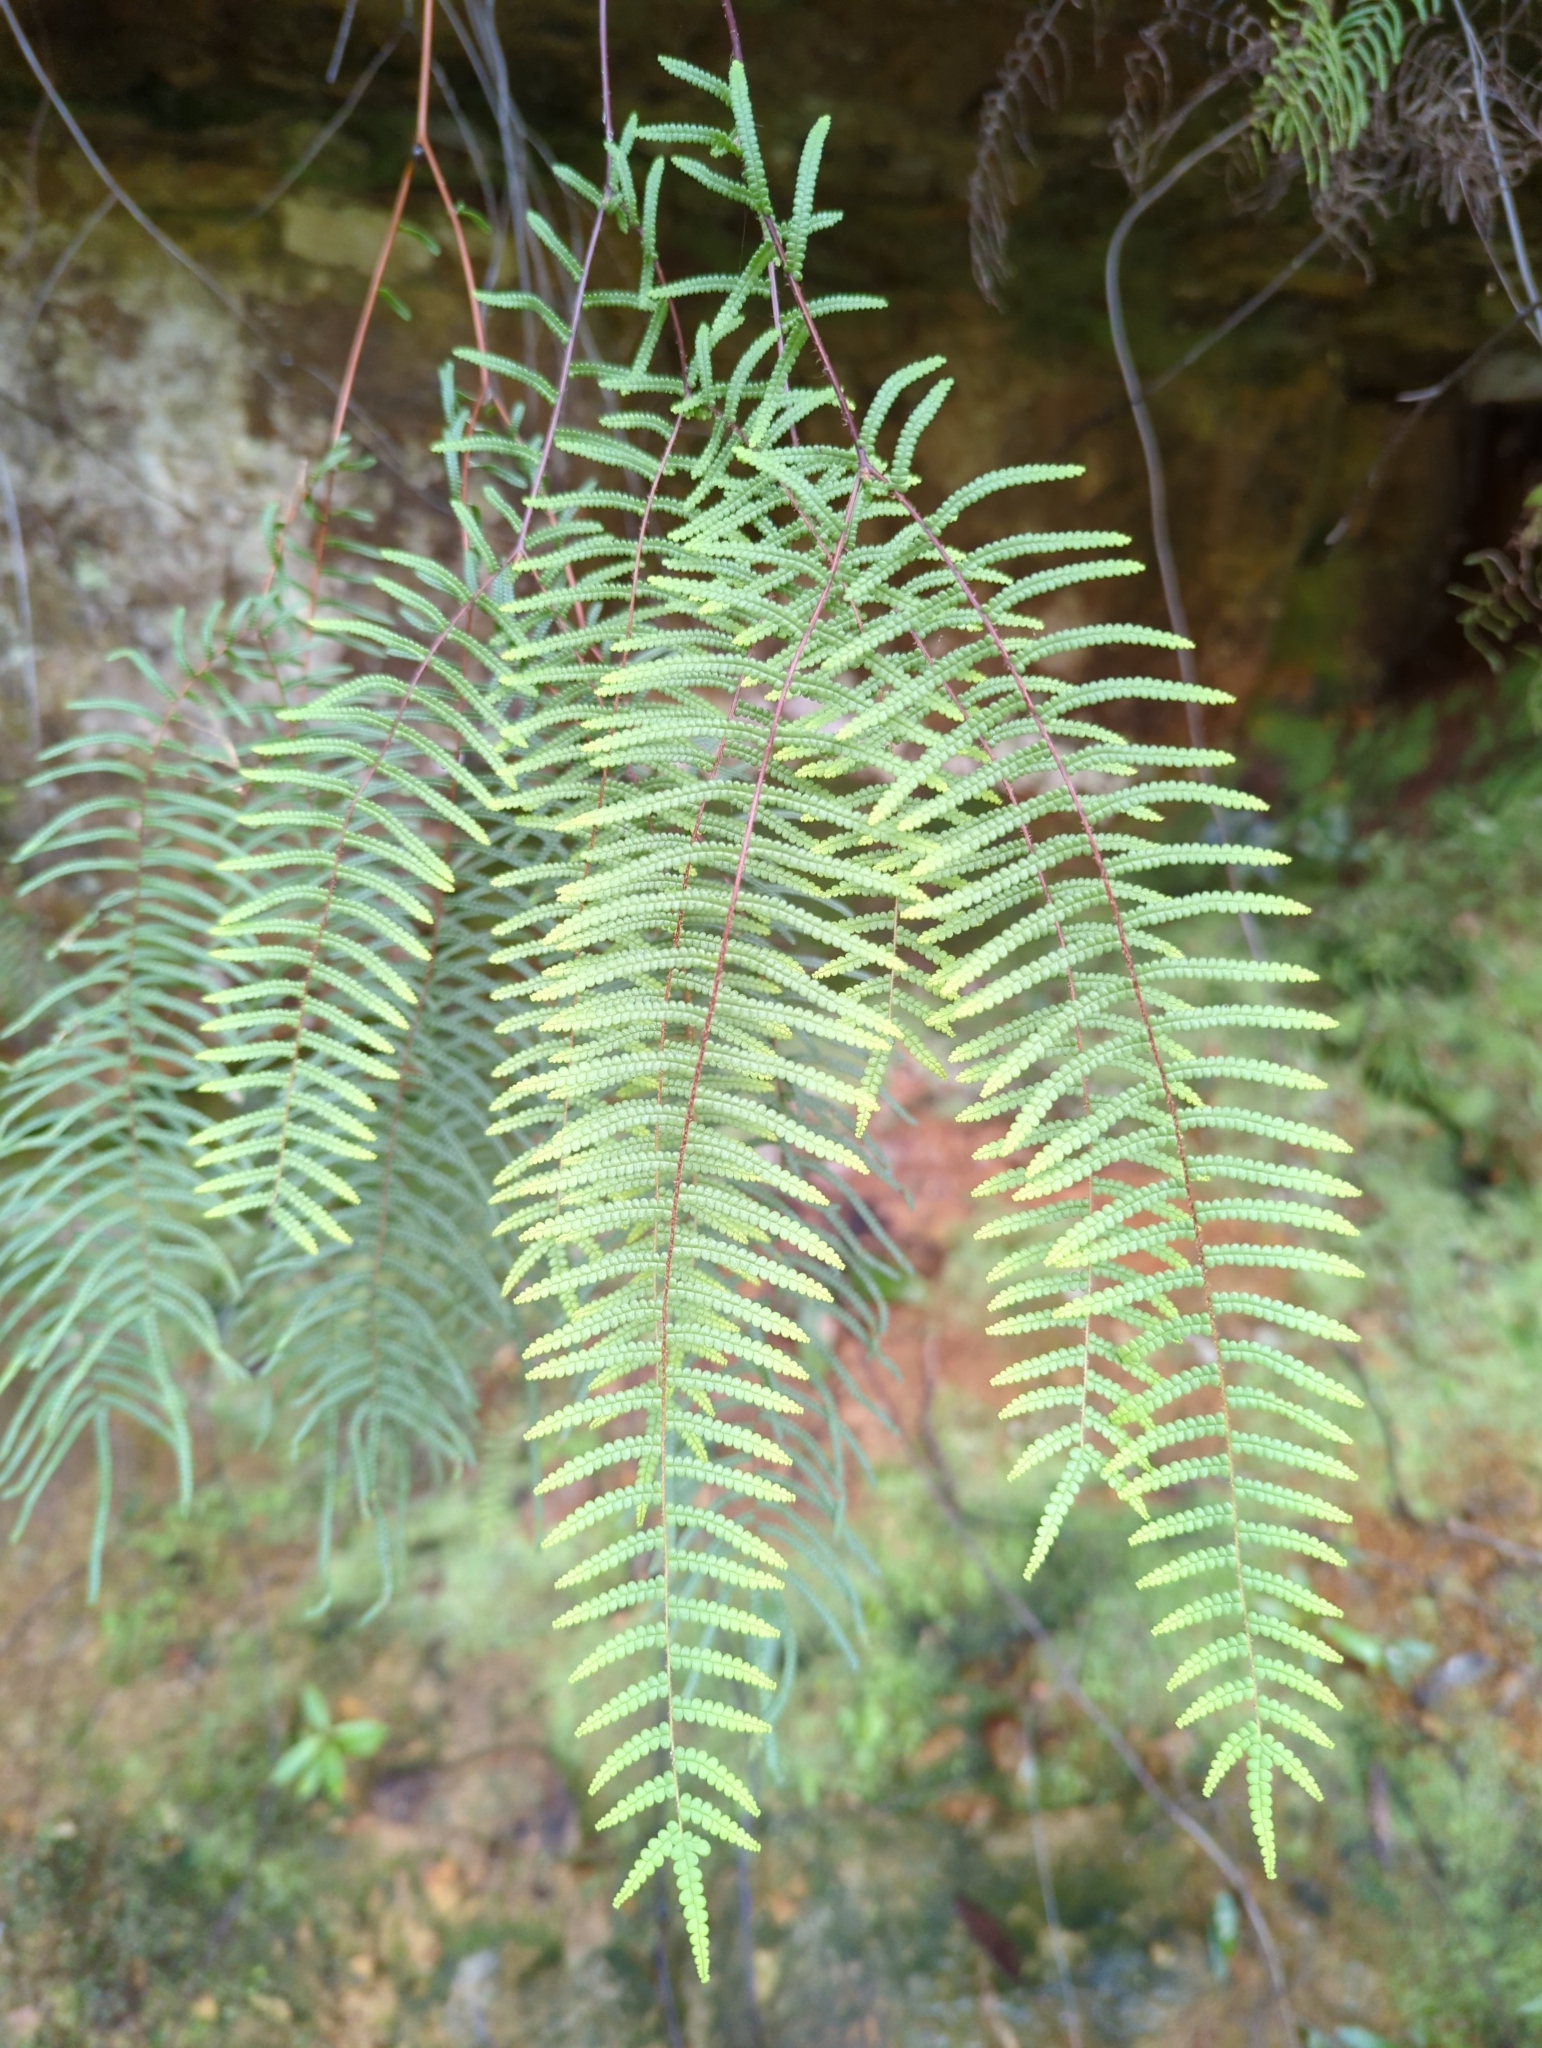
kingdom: Plantae
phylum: Tracheophyta
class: Polypodiopsida
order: Gleicheniales
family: Gleicheniaceae
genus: Gleichenia
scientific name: Gleichenia microphylla
